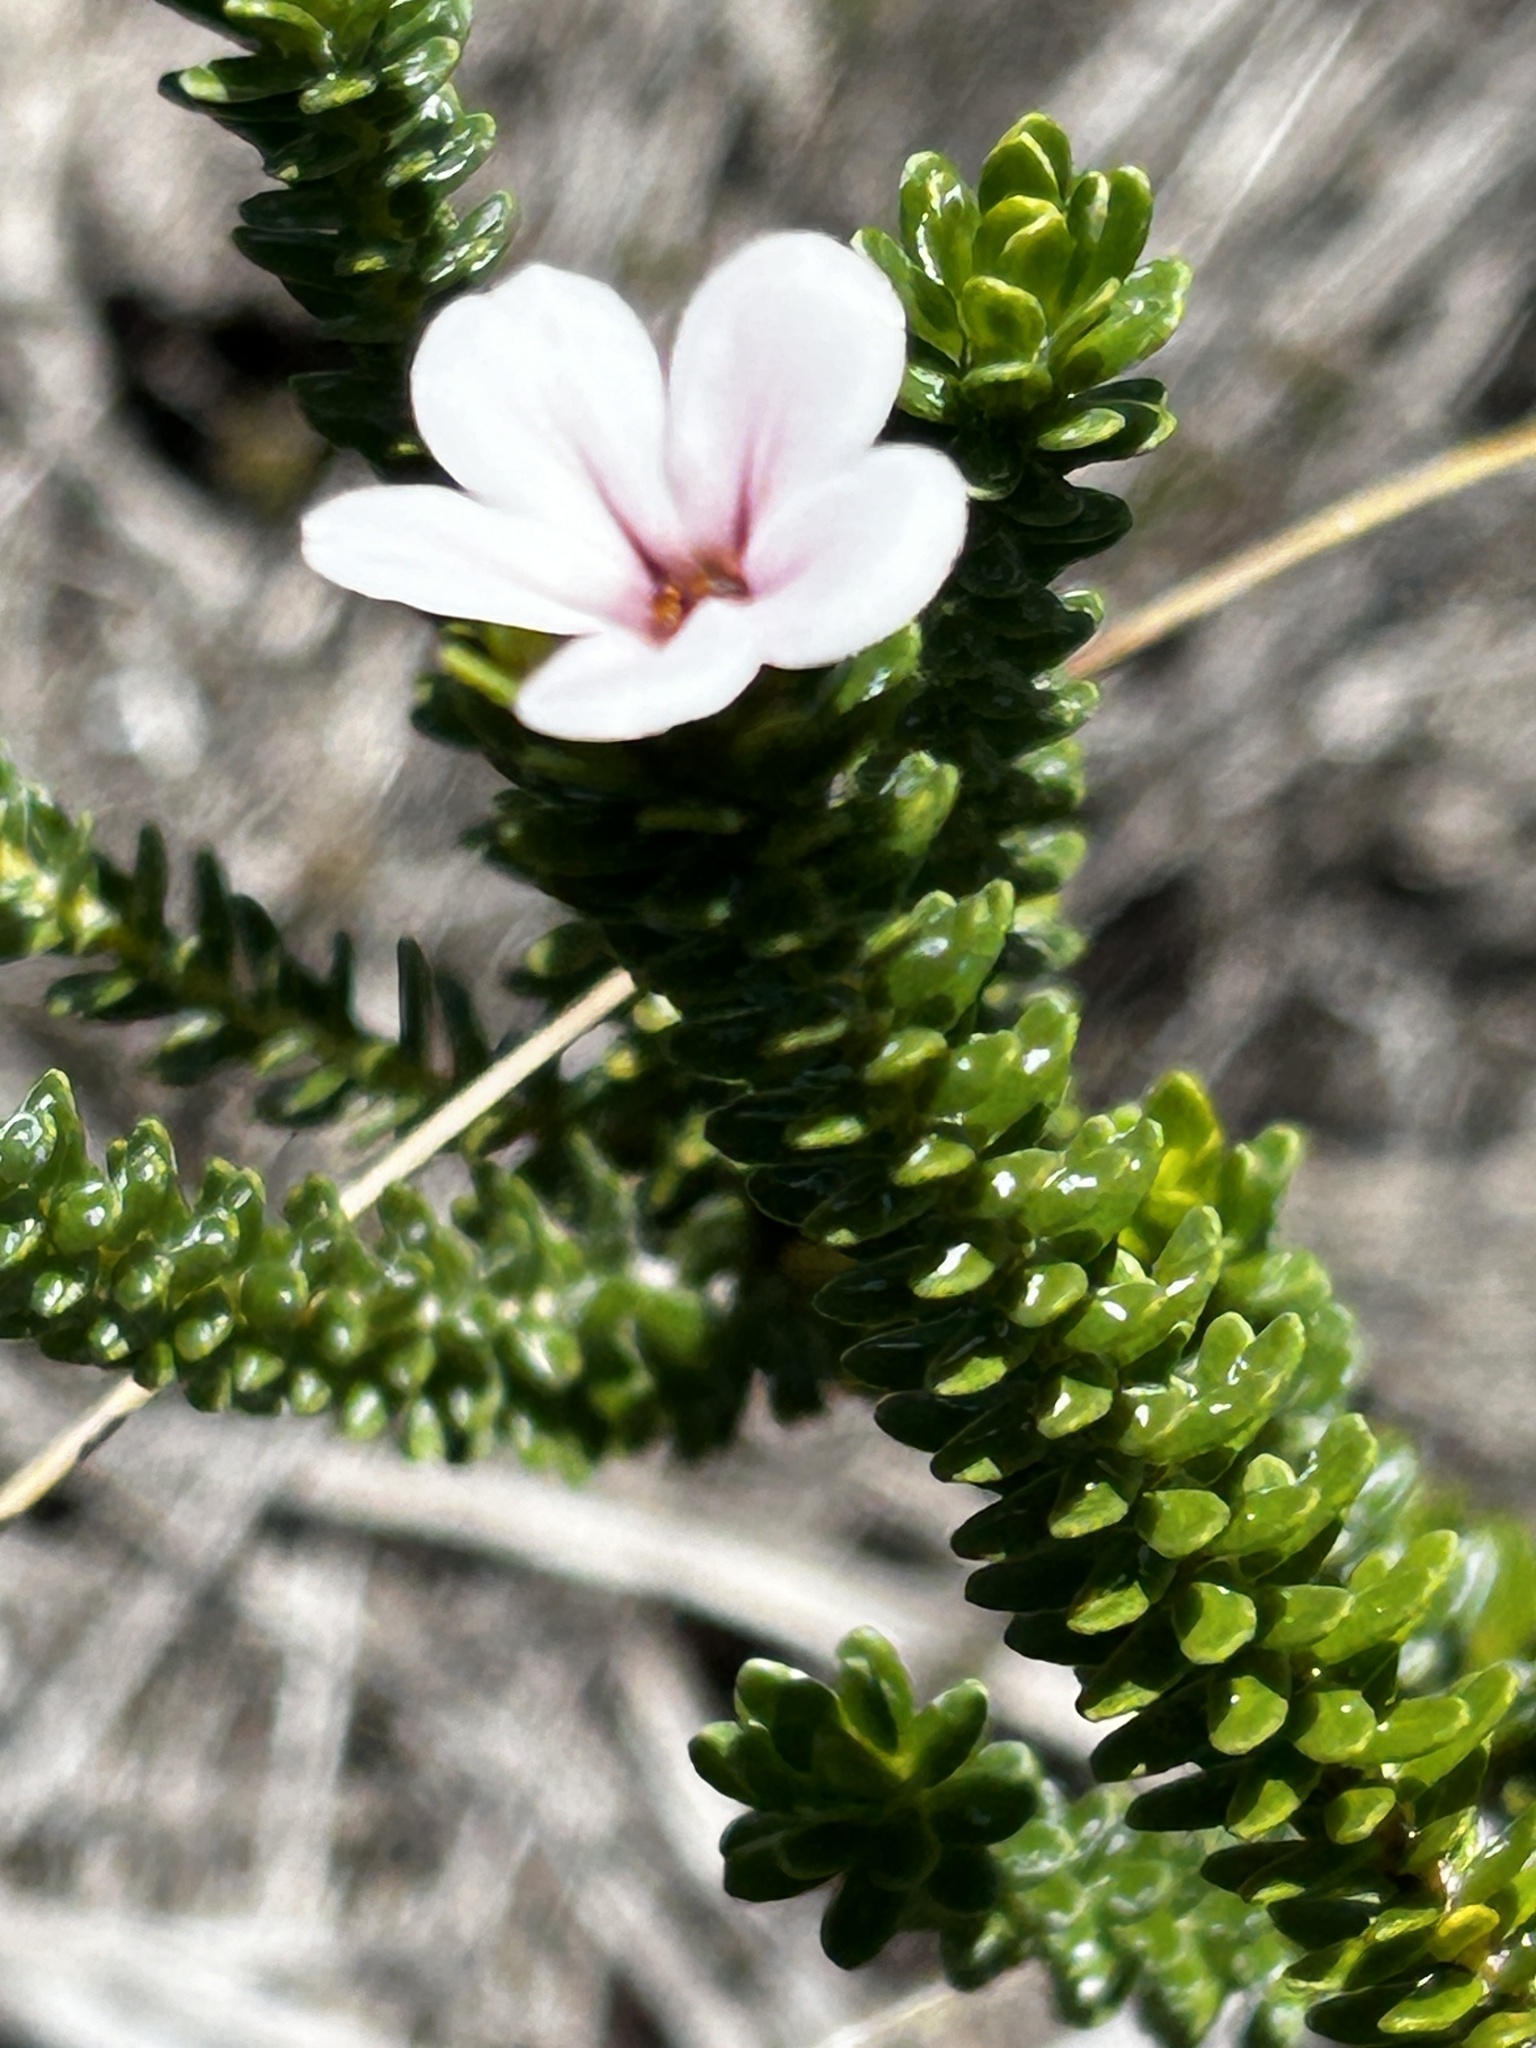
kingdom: Plantae
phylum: Tracheophyta
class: Magnoliopsida
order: Sapindales
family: Rutaceae
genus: Adenandra
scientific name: Adenandra uniflora
